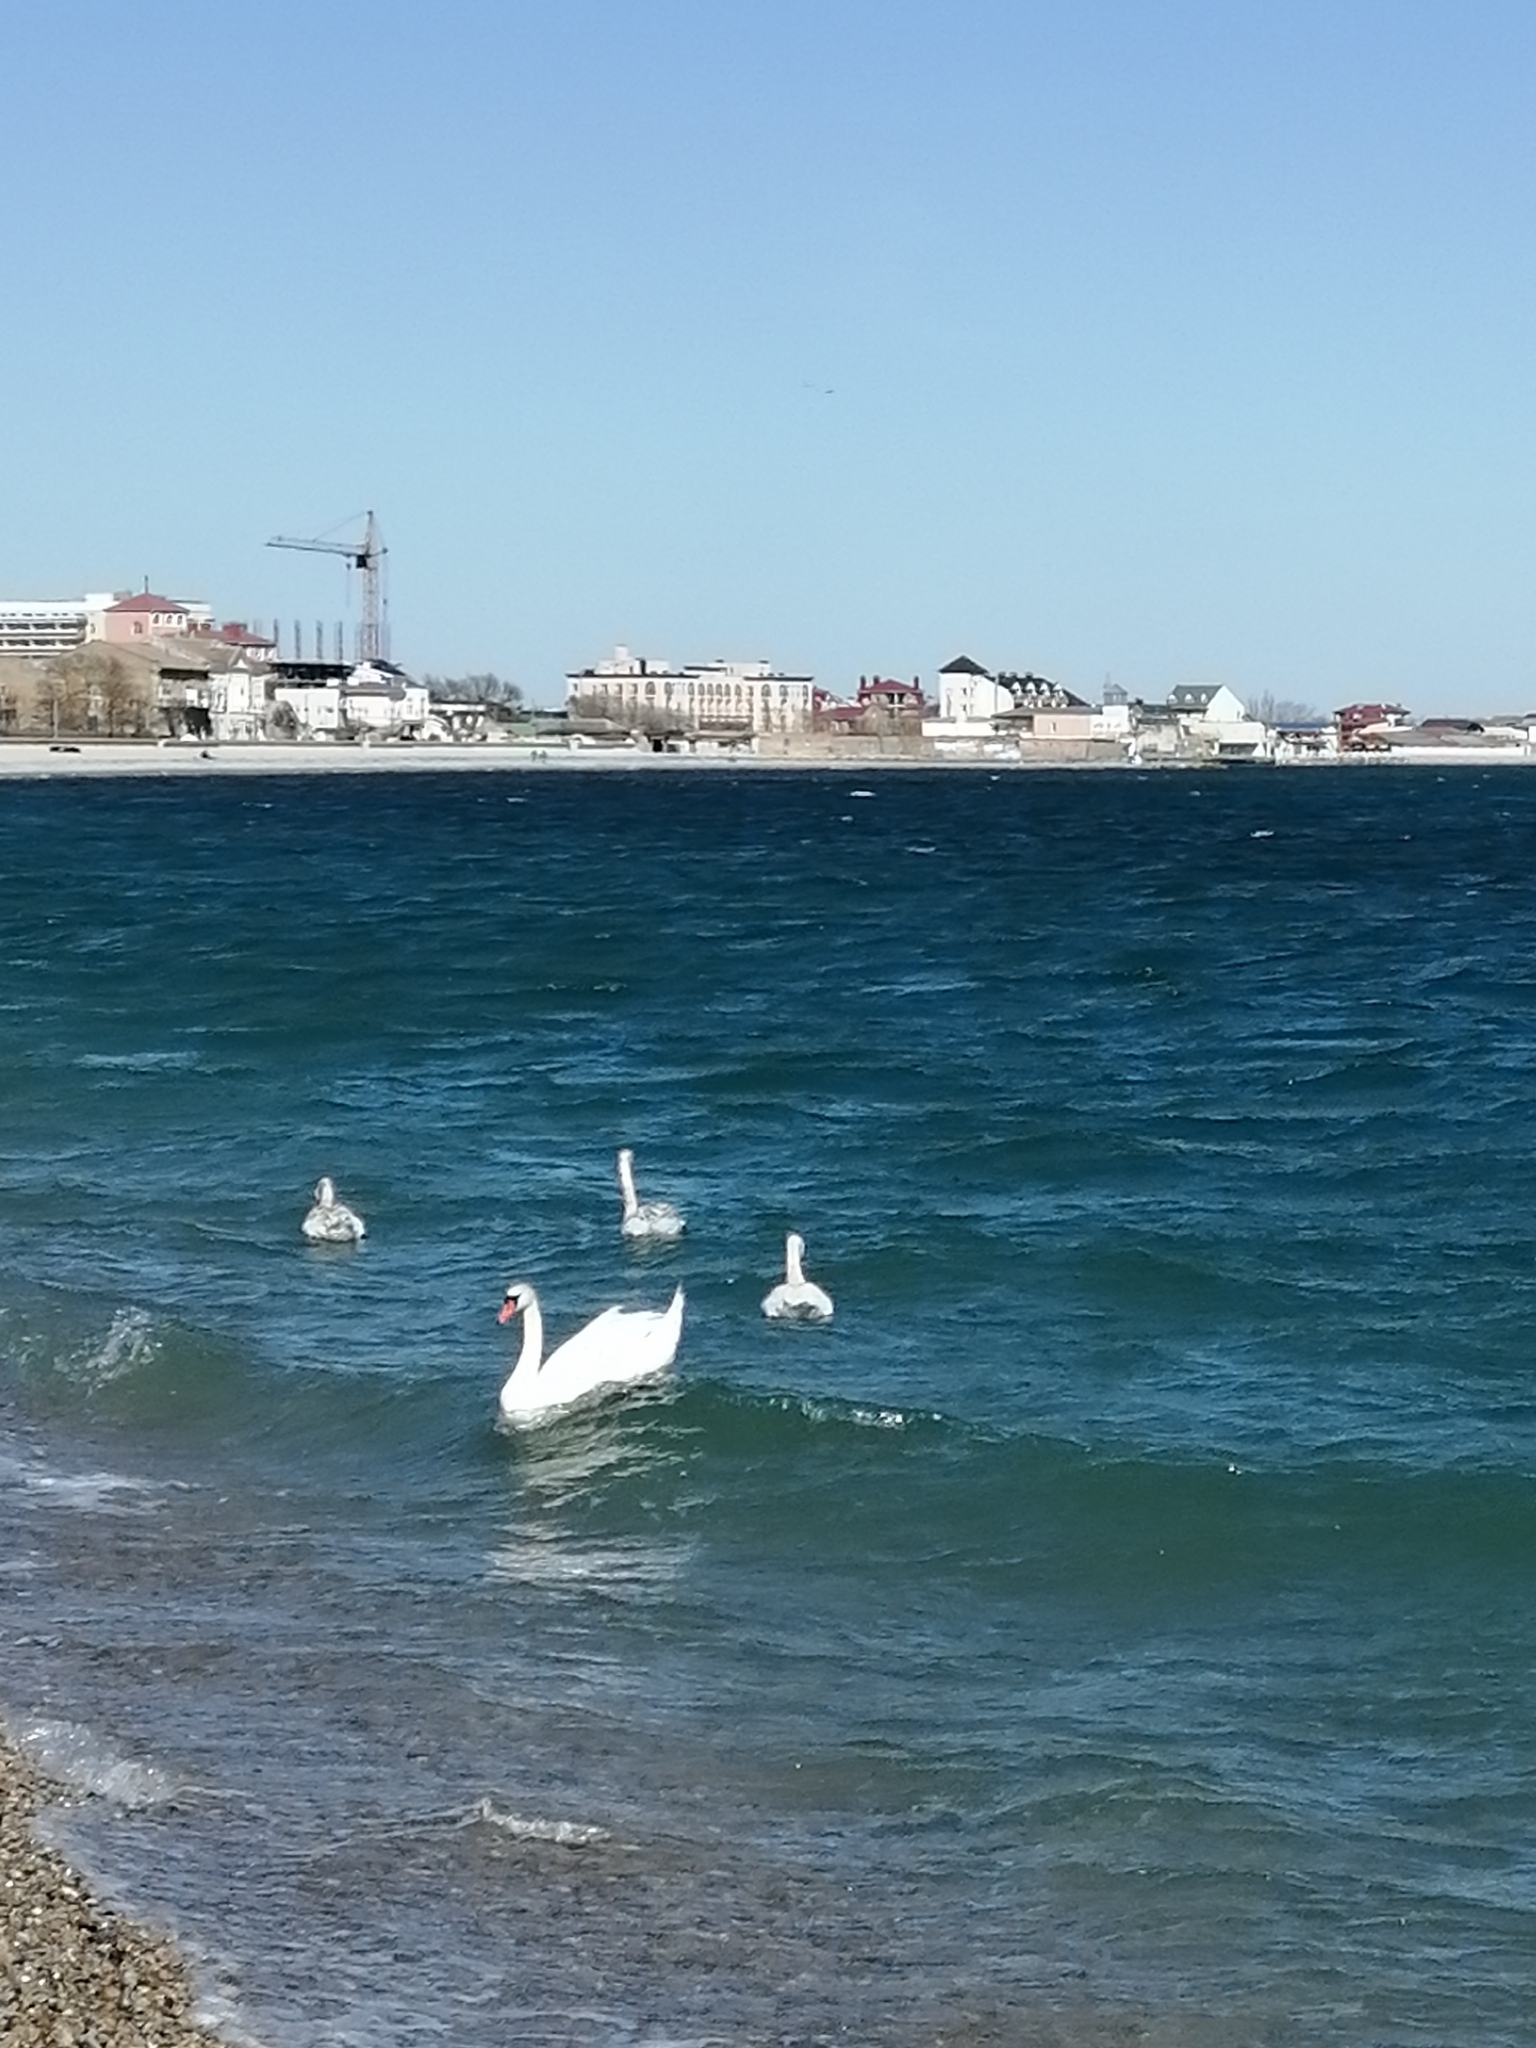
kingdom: Animalia
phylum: Chordata
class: Aves
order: Anseriformes
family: Anatidae
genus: Cygnus
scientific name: Cygnus olor
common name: Mute swan
